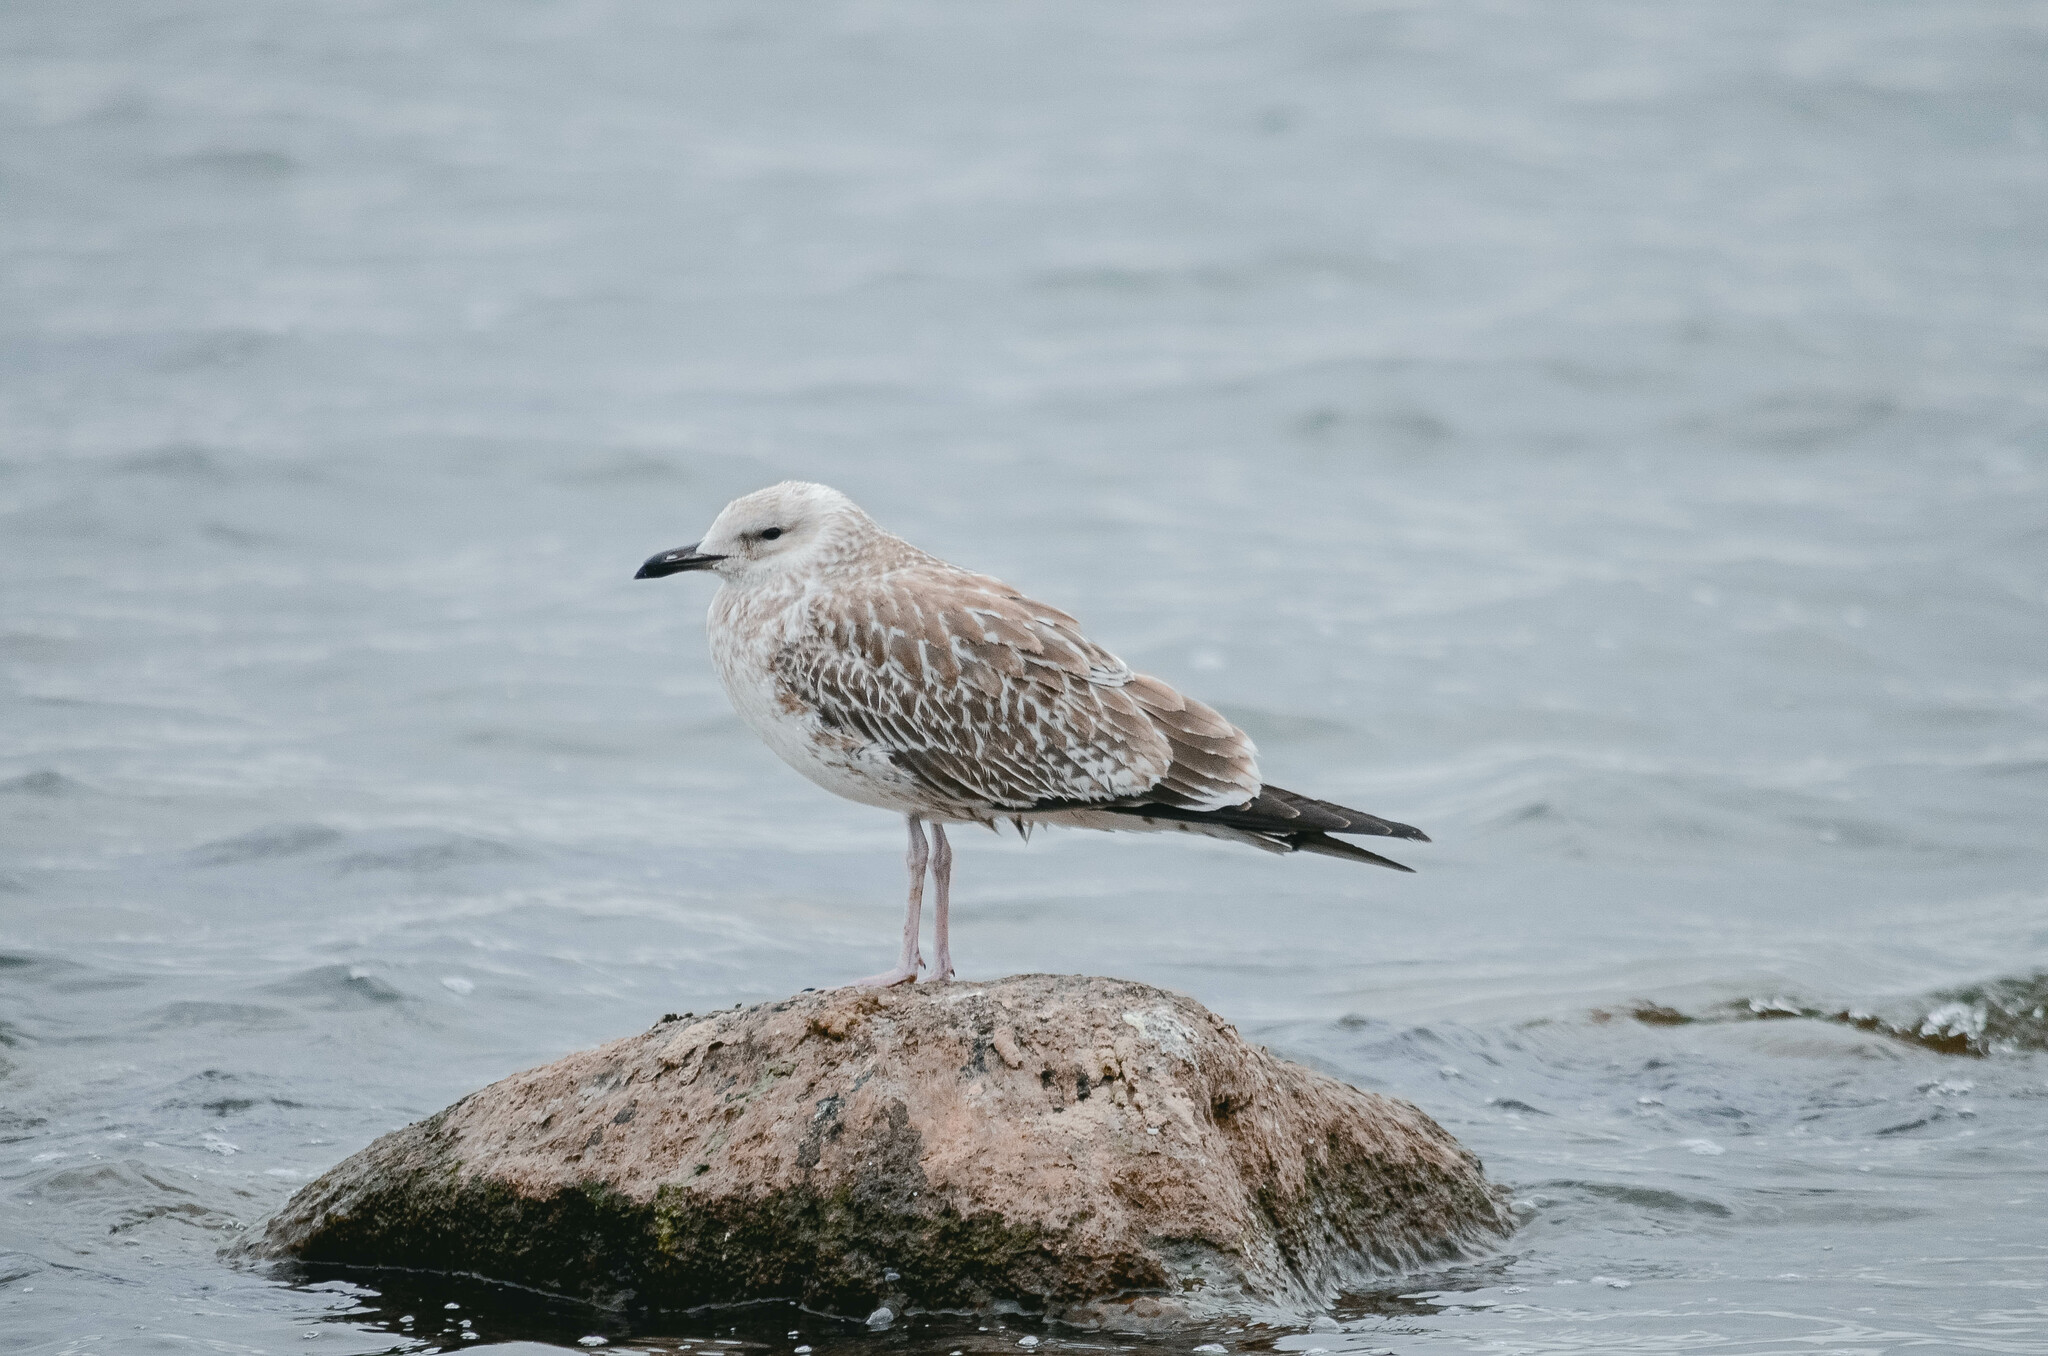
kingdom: Animalia
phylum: Chordata
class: Aves
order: Charadriiformes
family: Laridae
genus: Larus
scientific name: Larus fuscus
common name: Lesser black-backed gull
